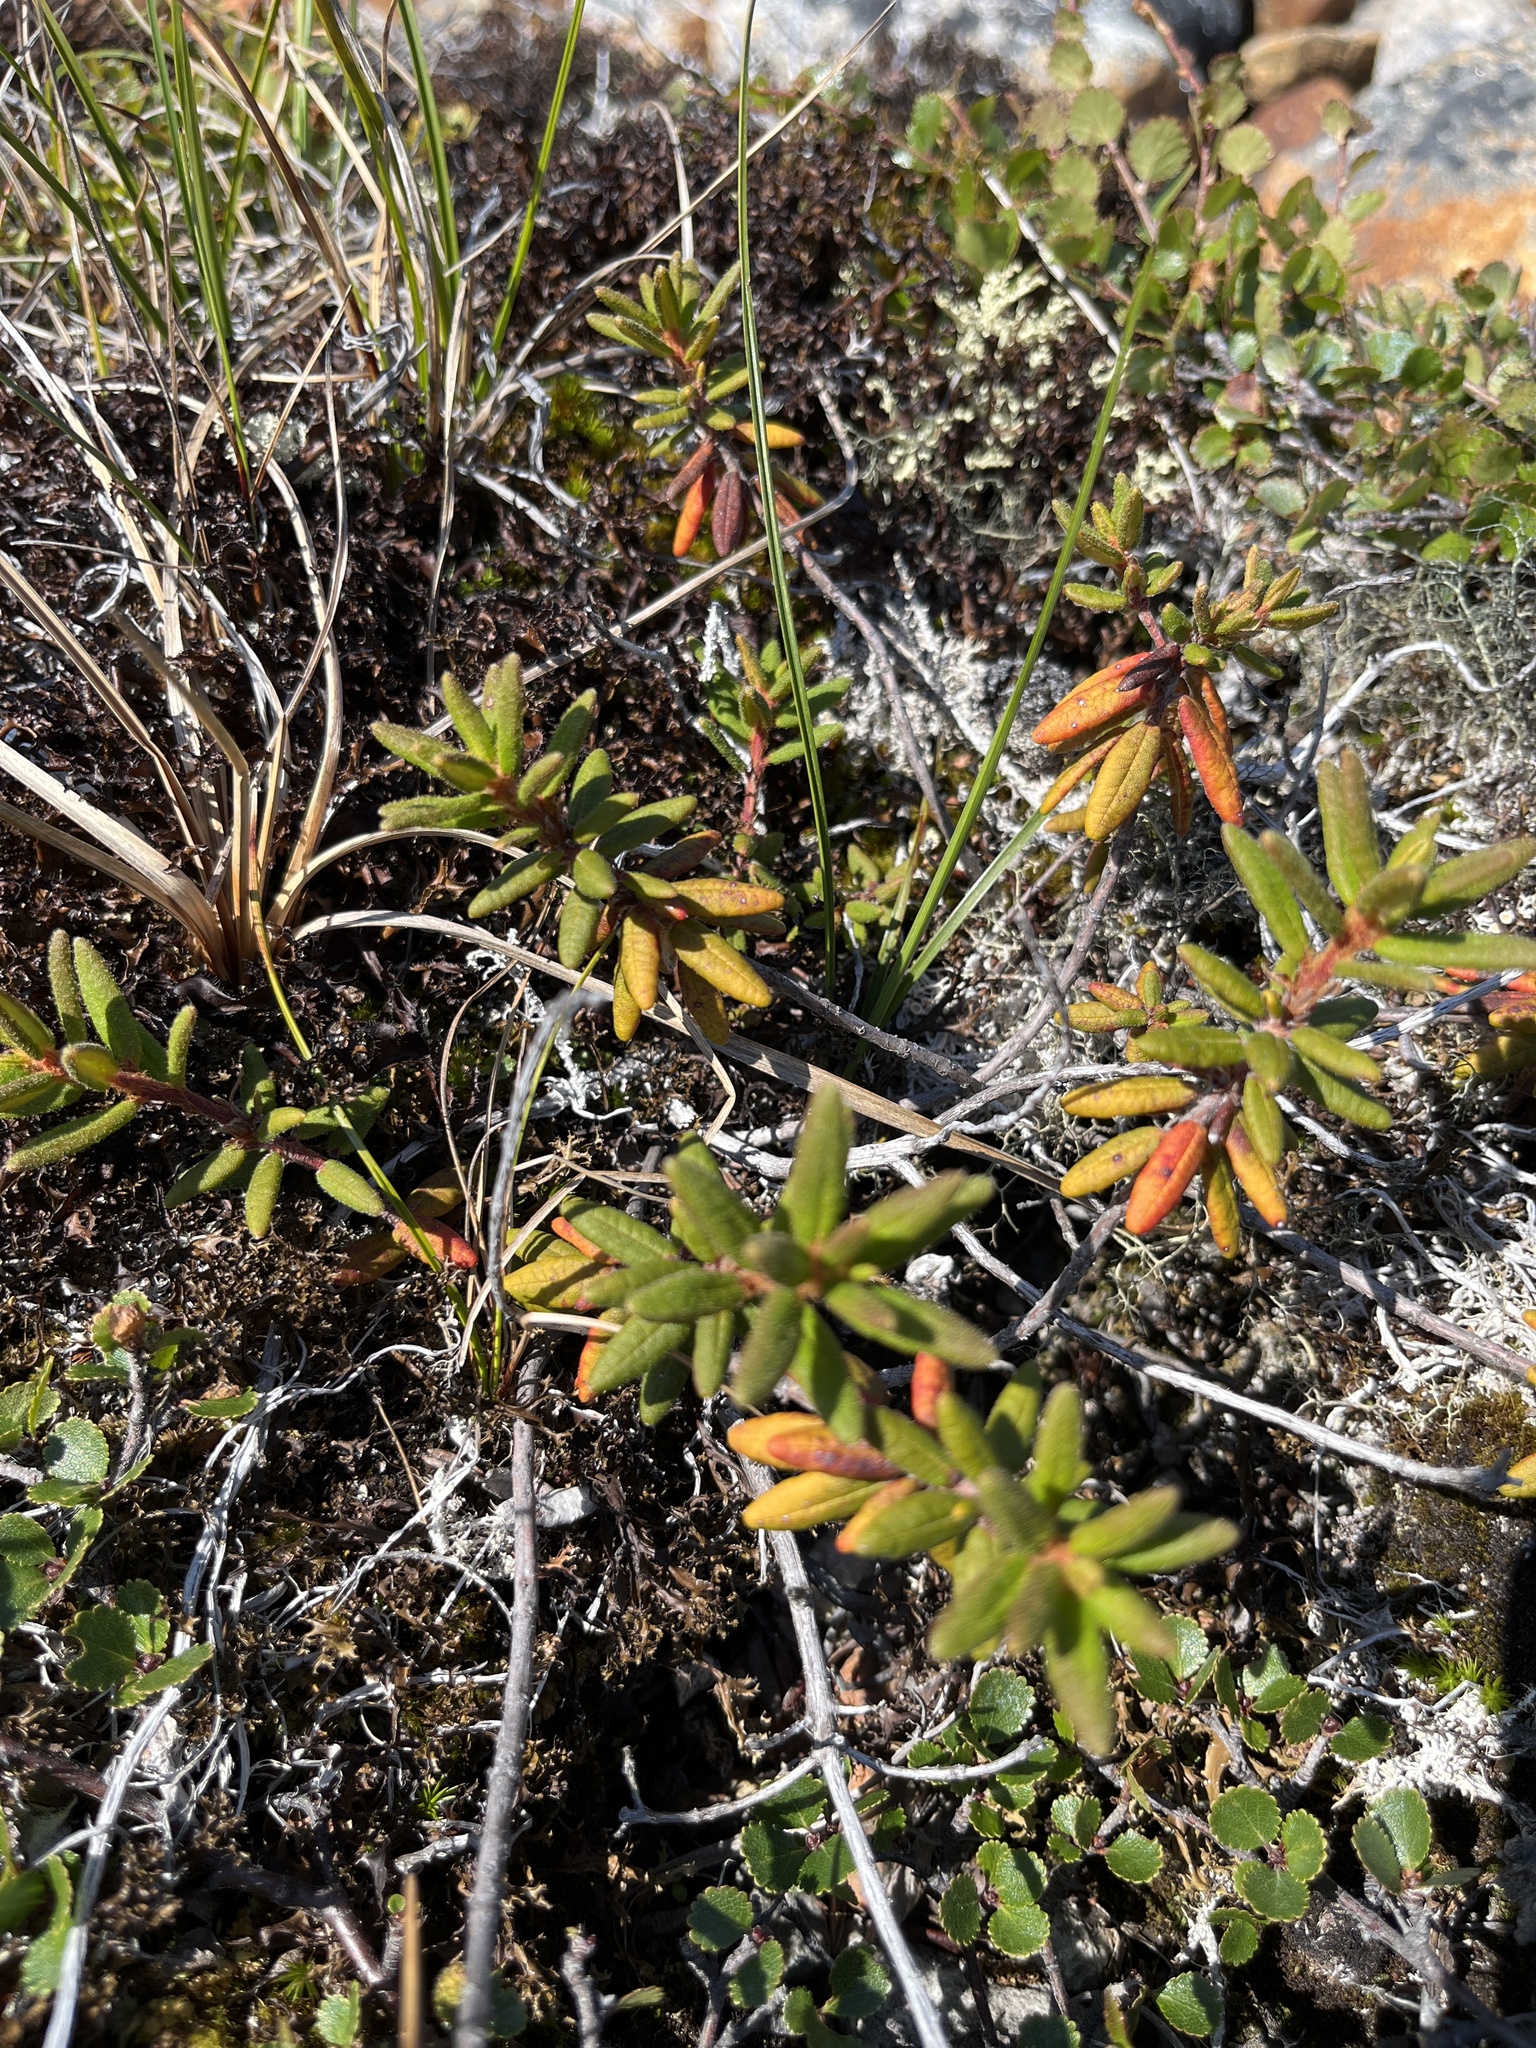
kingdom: Plantae
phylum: Tracheophyta
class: Magnoliopsida
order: Ericales
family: Ericaceae
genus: Rhododendron
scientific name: Rhododendron groenlandicum
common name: Bog labrador tea
